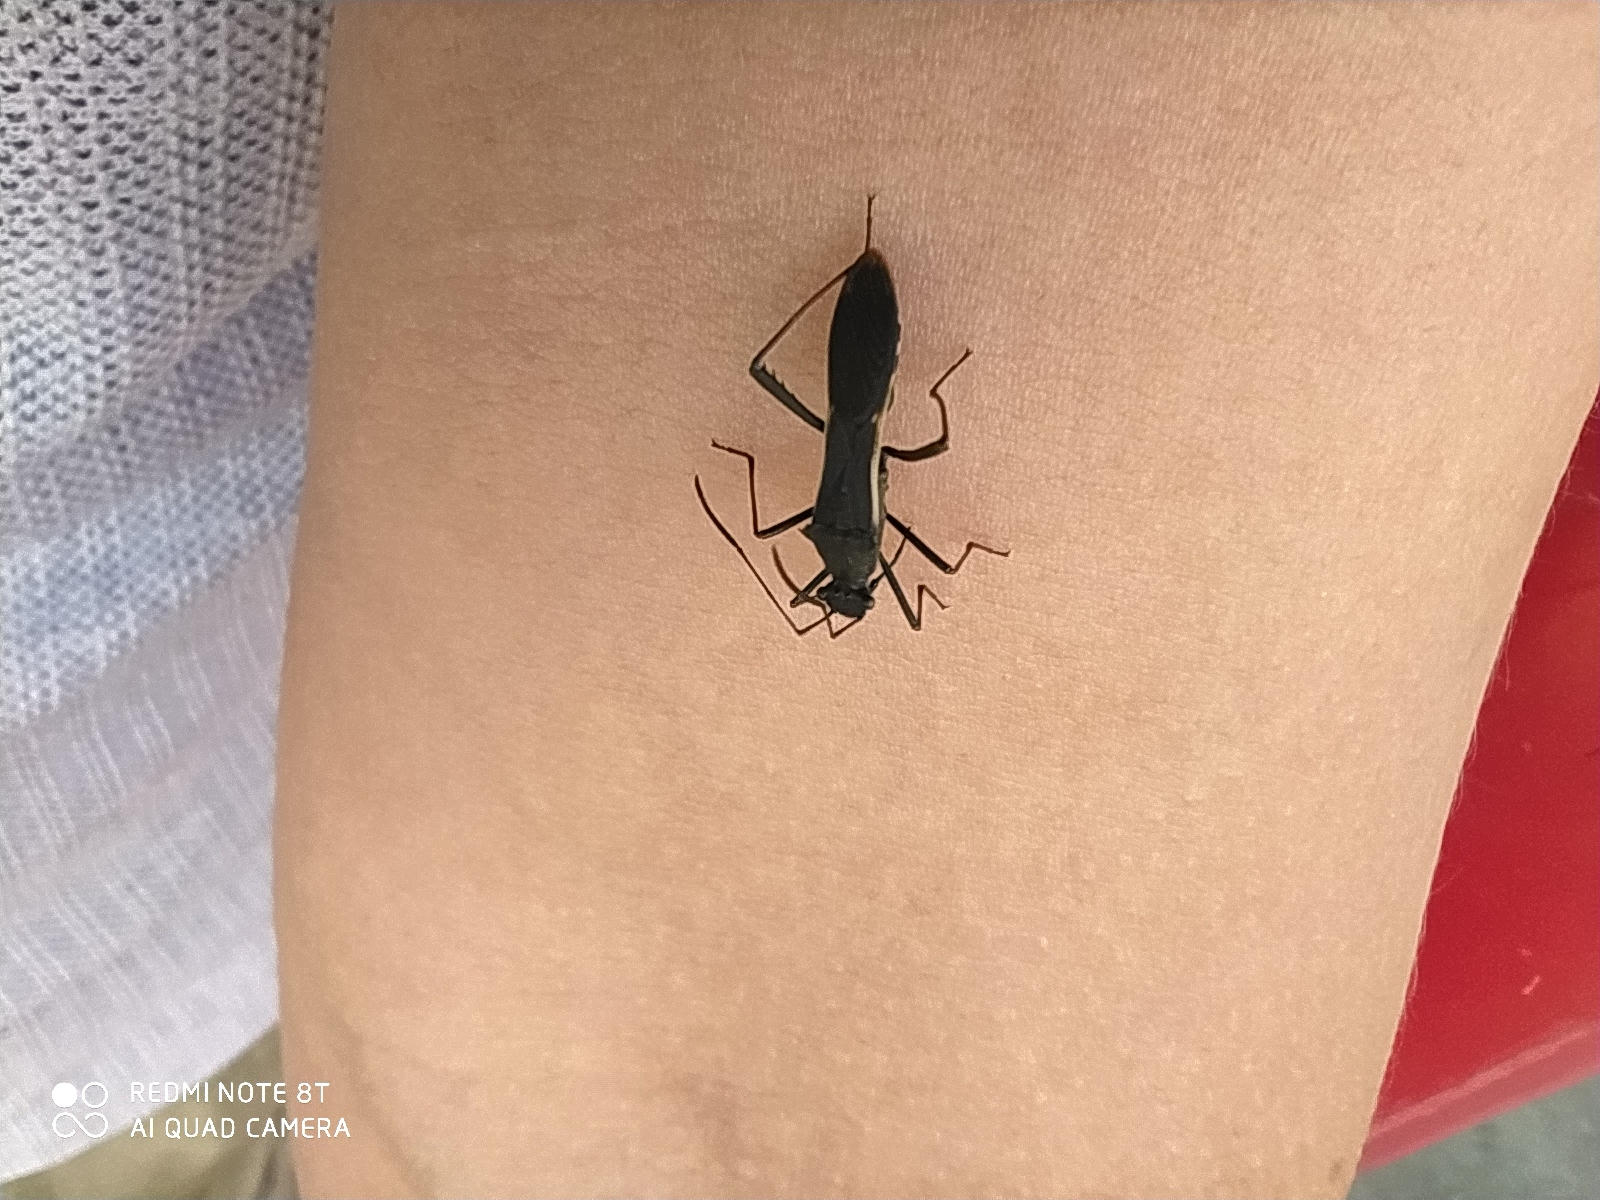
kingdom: Animalia
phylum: Arthropoda
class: Insecta
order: Hemiptera
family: Alydidae
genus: Megalotomus
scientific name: Megalotomus junceus
